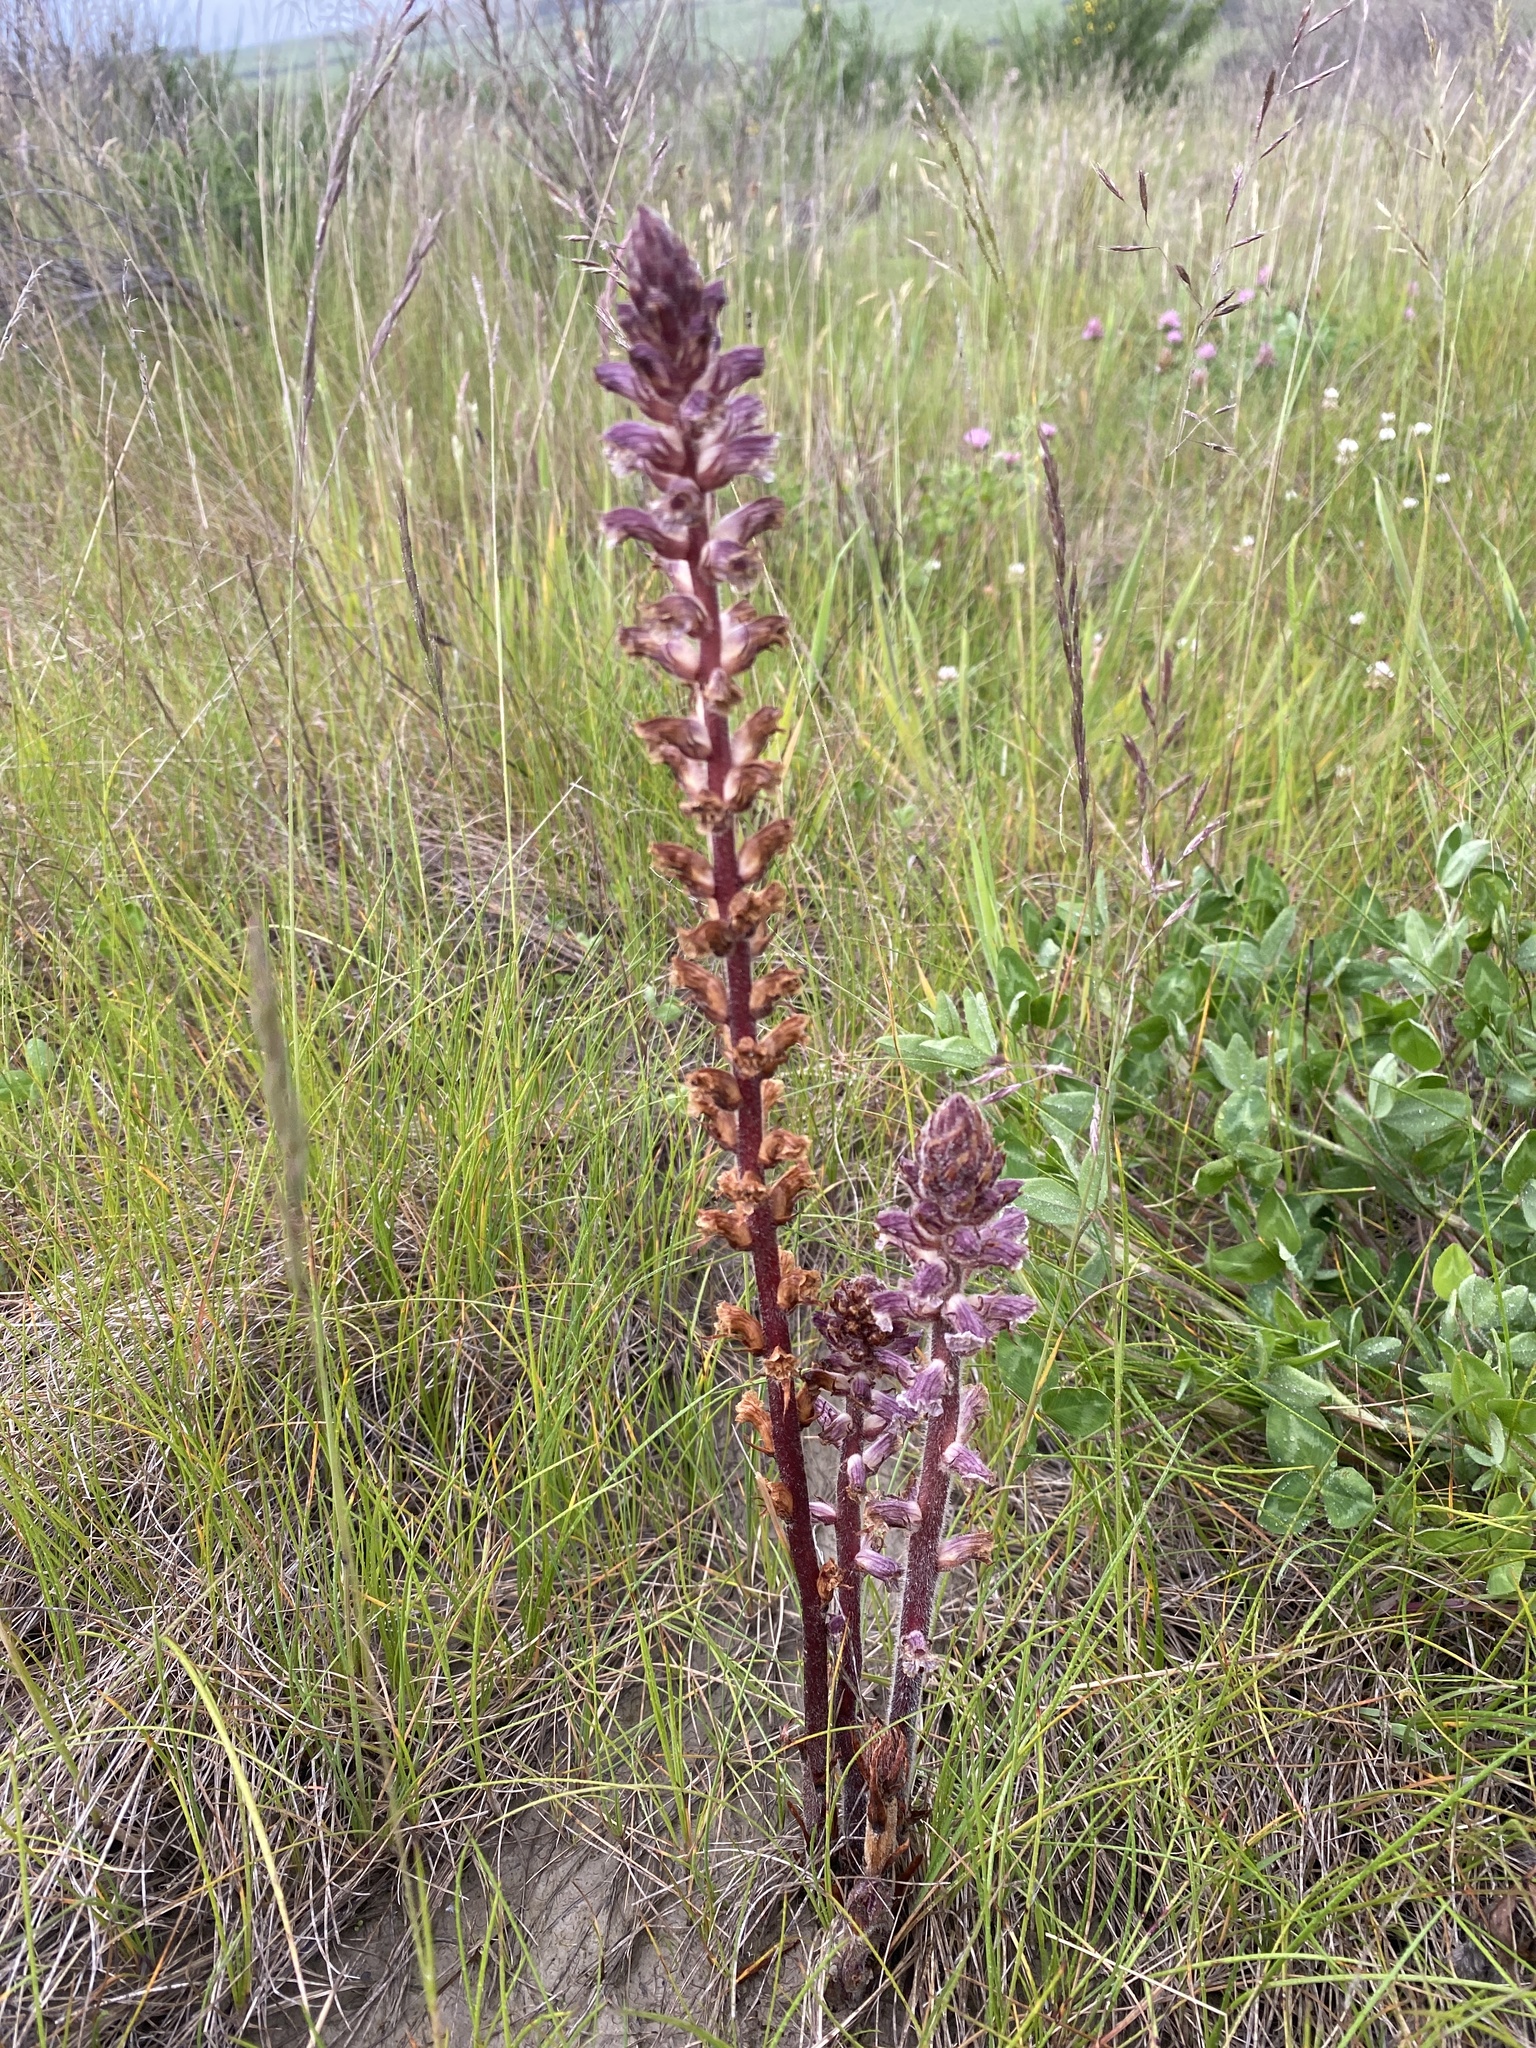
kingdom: Plantae
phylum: Tracheophyta
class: Magnoliopsida
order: Lamiales
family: Orobanchaceae
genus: Orobanche
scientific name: Orobanche minor
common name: Common broomrape
